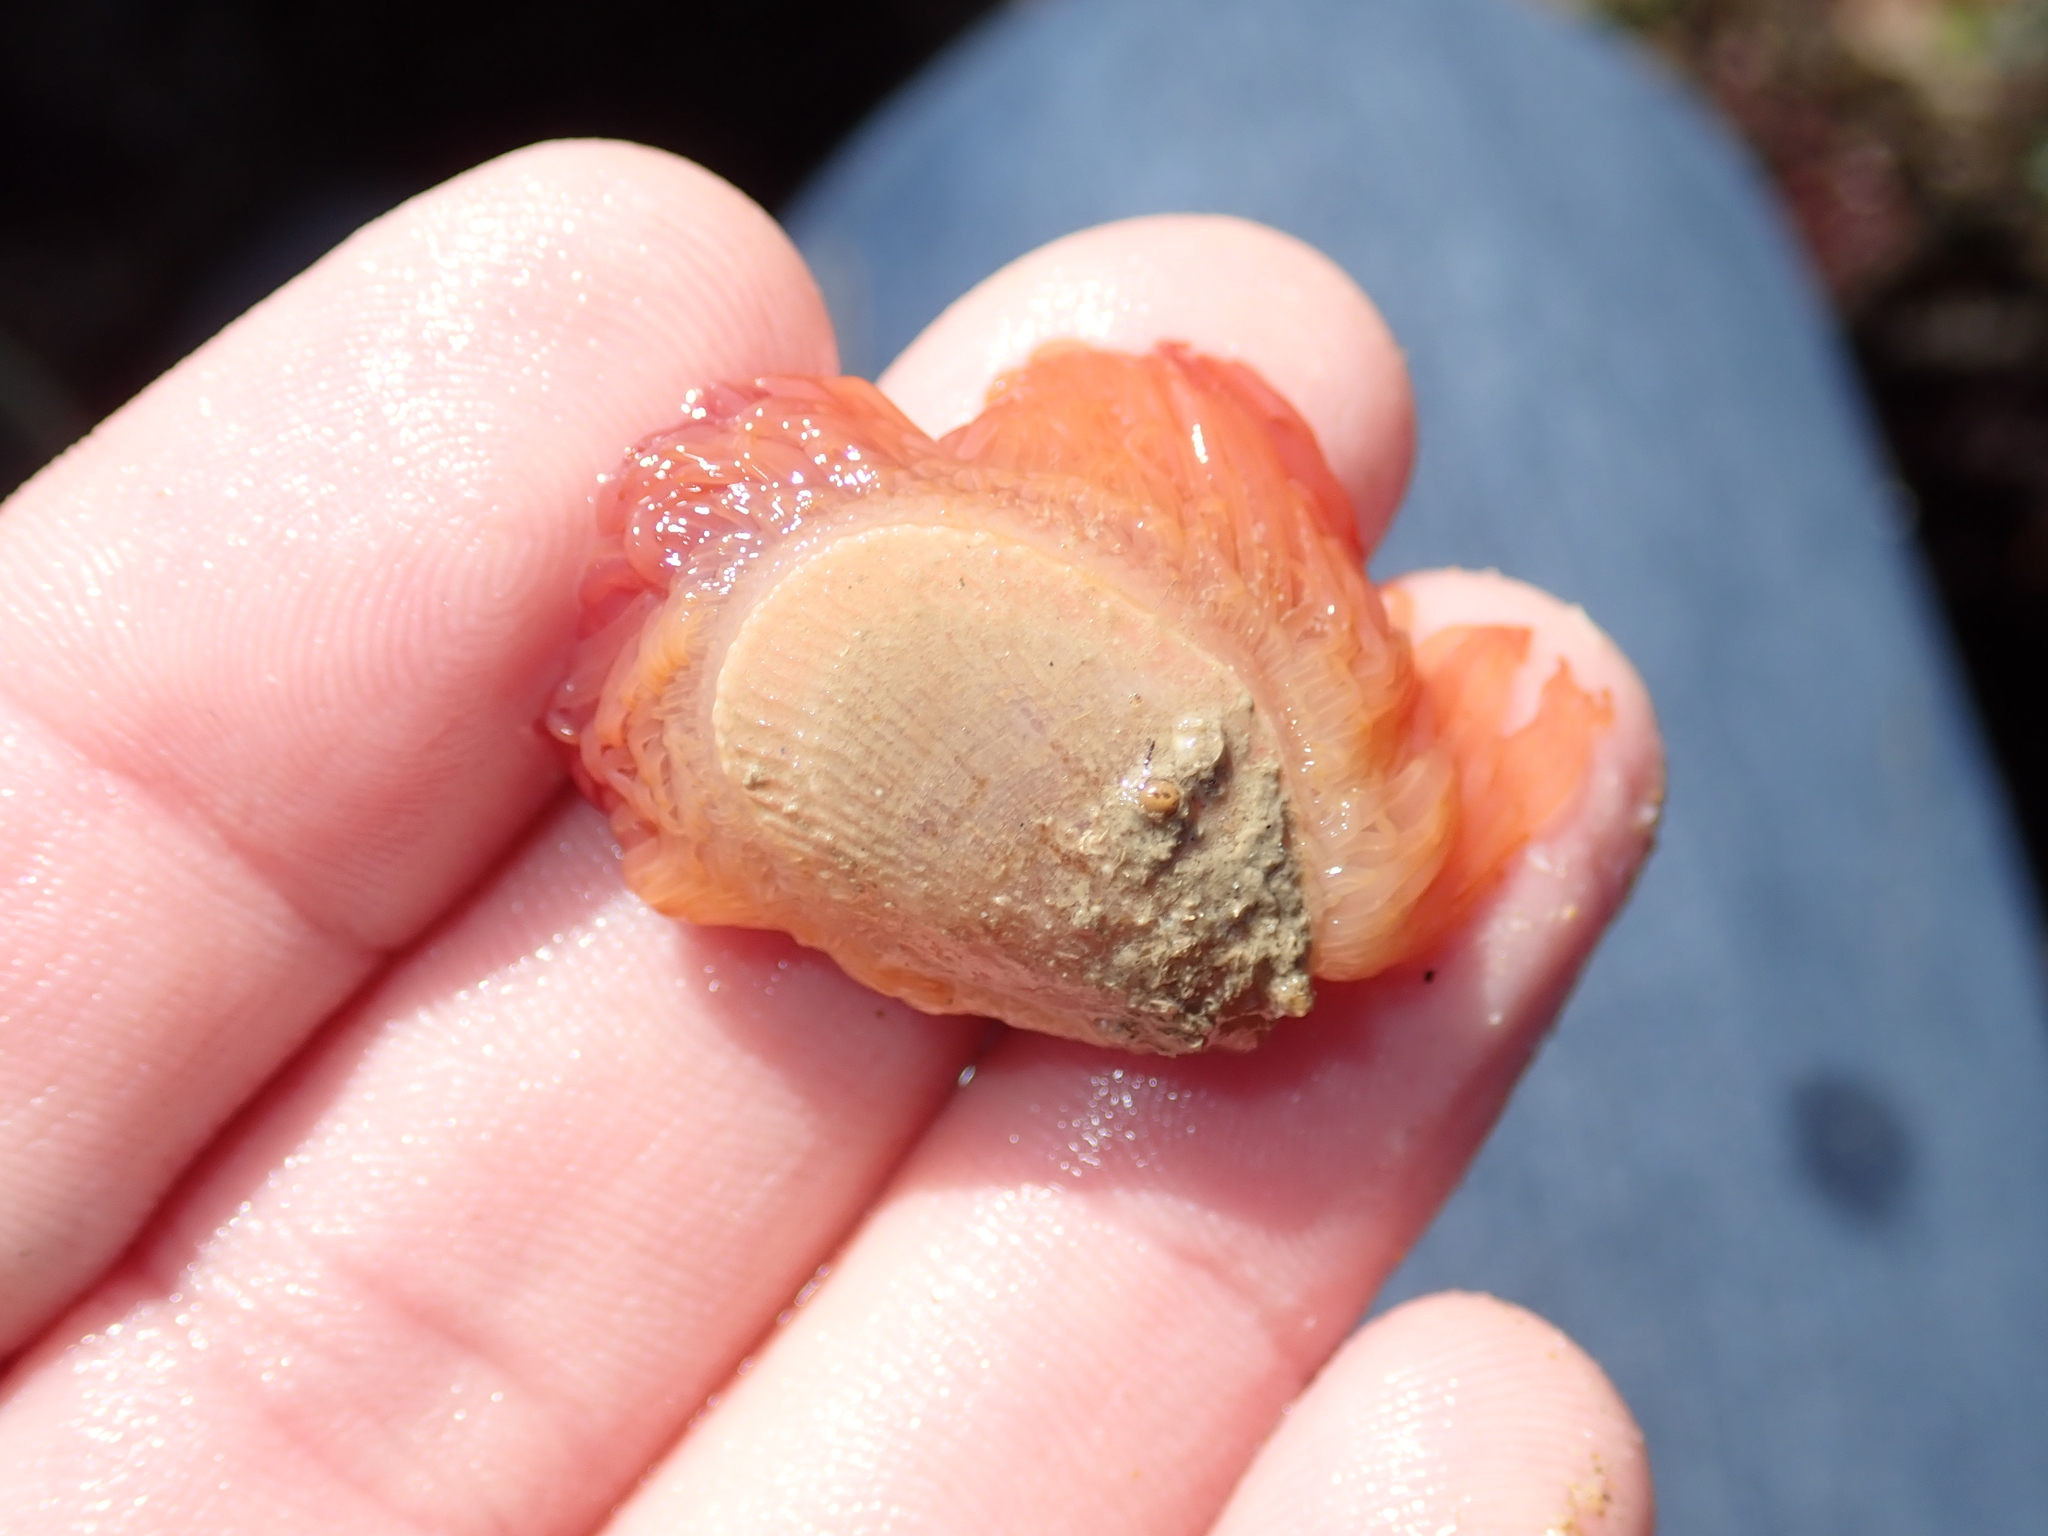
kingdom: Animalia
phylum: Mollusca
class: Bivalvia
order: Limida
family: Limidae
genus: Limaria
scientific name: Limaria hians
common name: Gaping file shale
